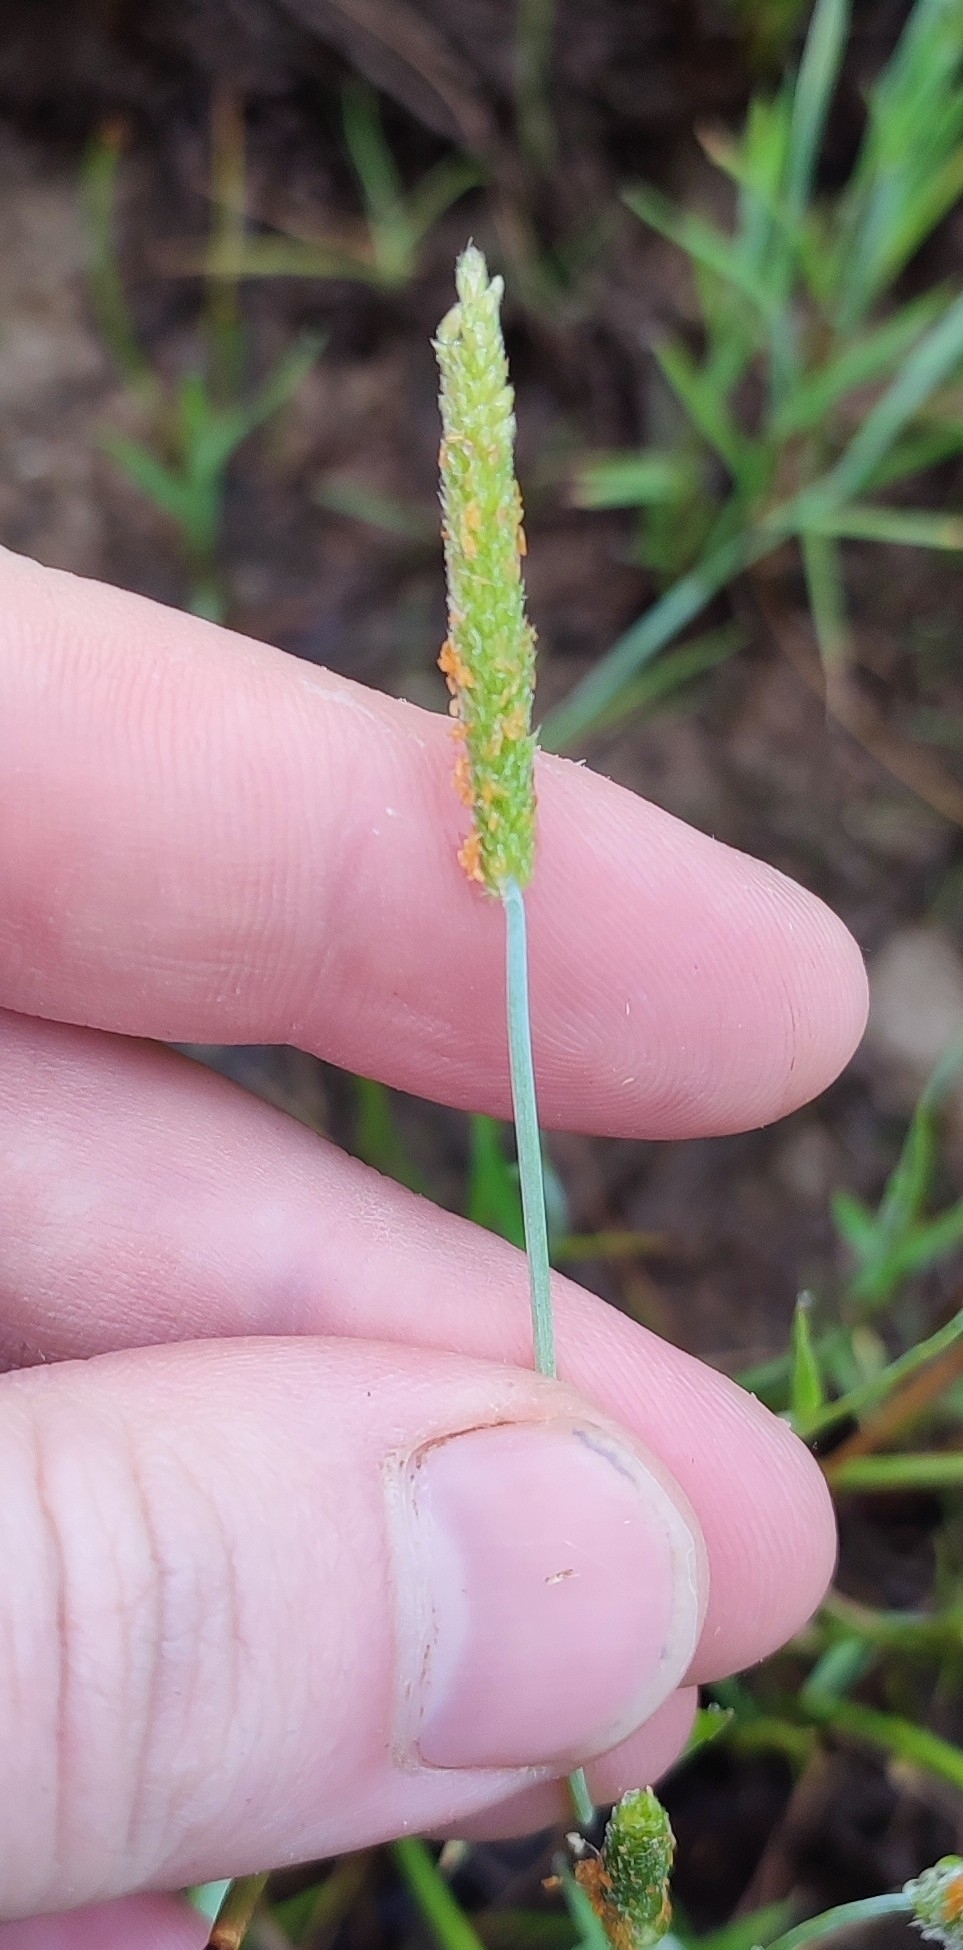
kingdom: Plantae
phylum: Tracheophyta
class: Liliopsida
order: Poales
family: Poaceae
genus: Alopecurus
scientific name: Alopecurus aequalis
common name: Orange foxtail
